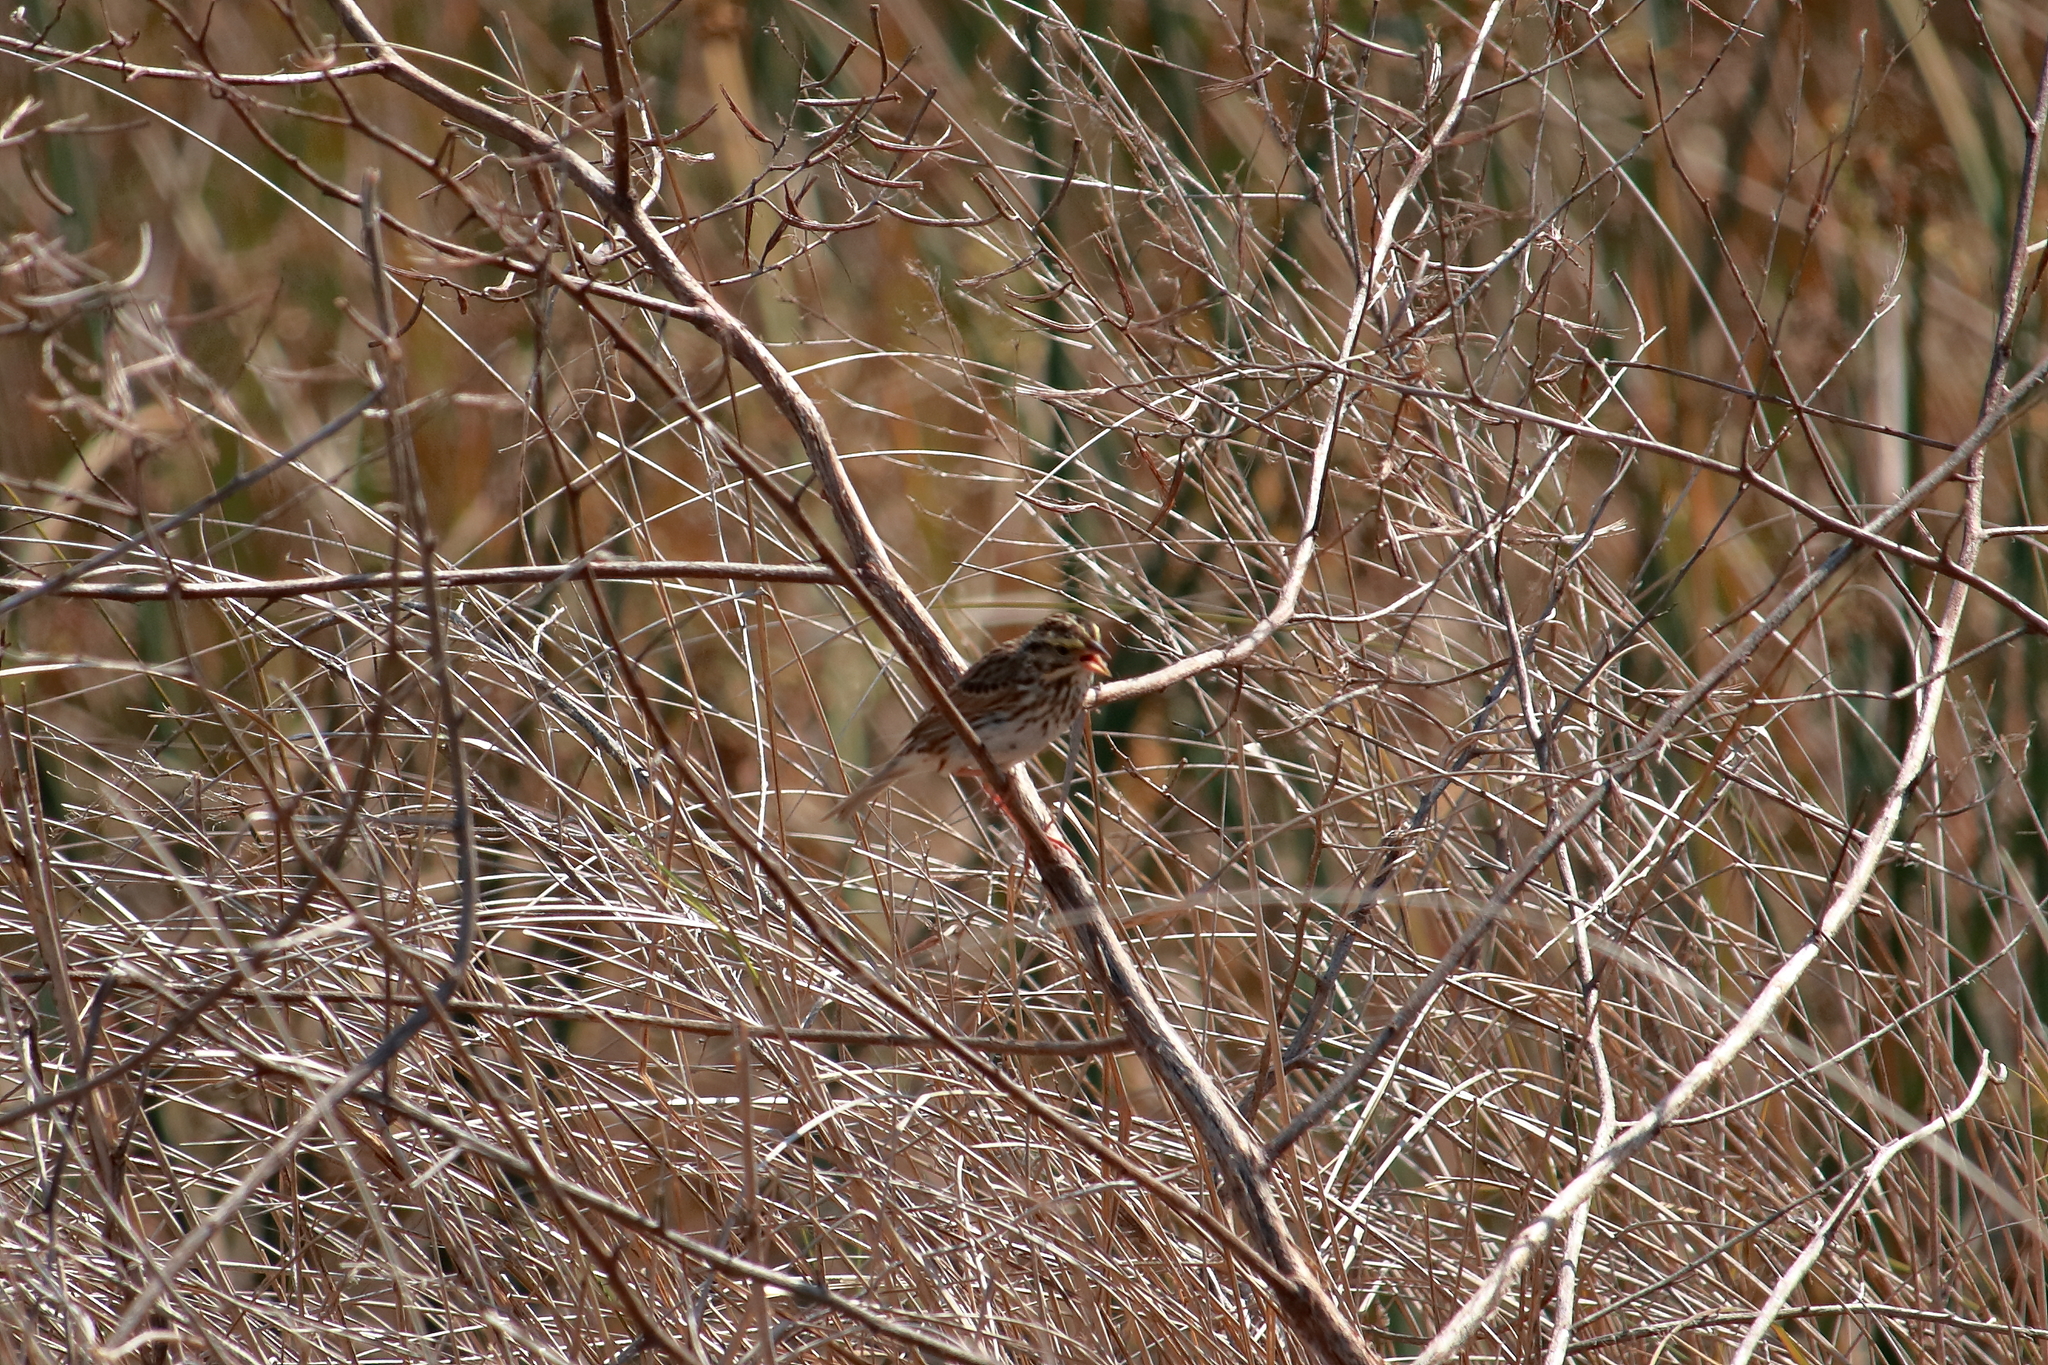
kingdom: Animalia
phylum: Chordata
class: Aves
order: Passeriformes
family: Passerellidae
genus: Passerculus
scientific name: Passerculus sandwichensis
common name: Savannah sparrow
